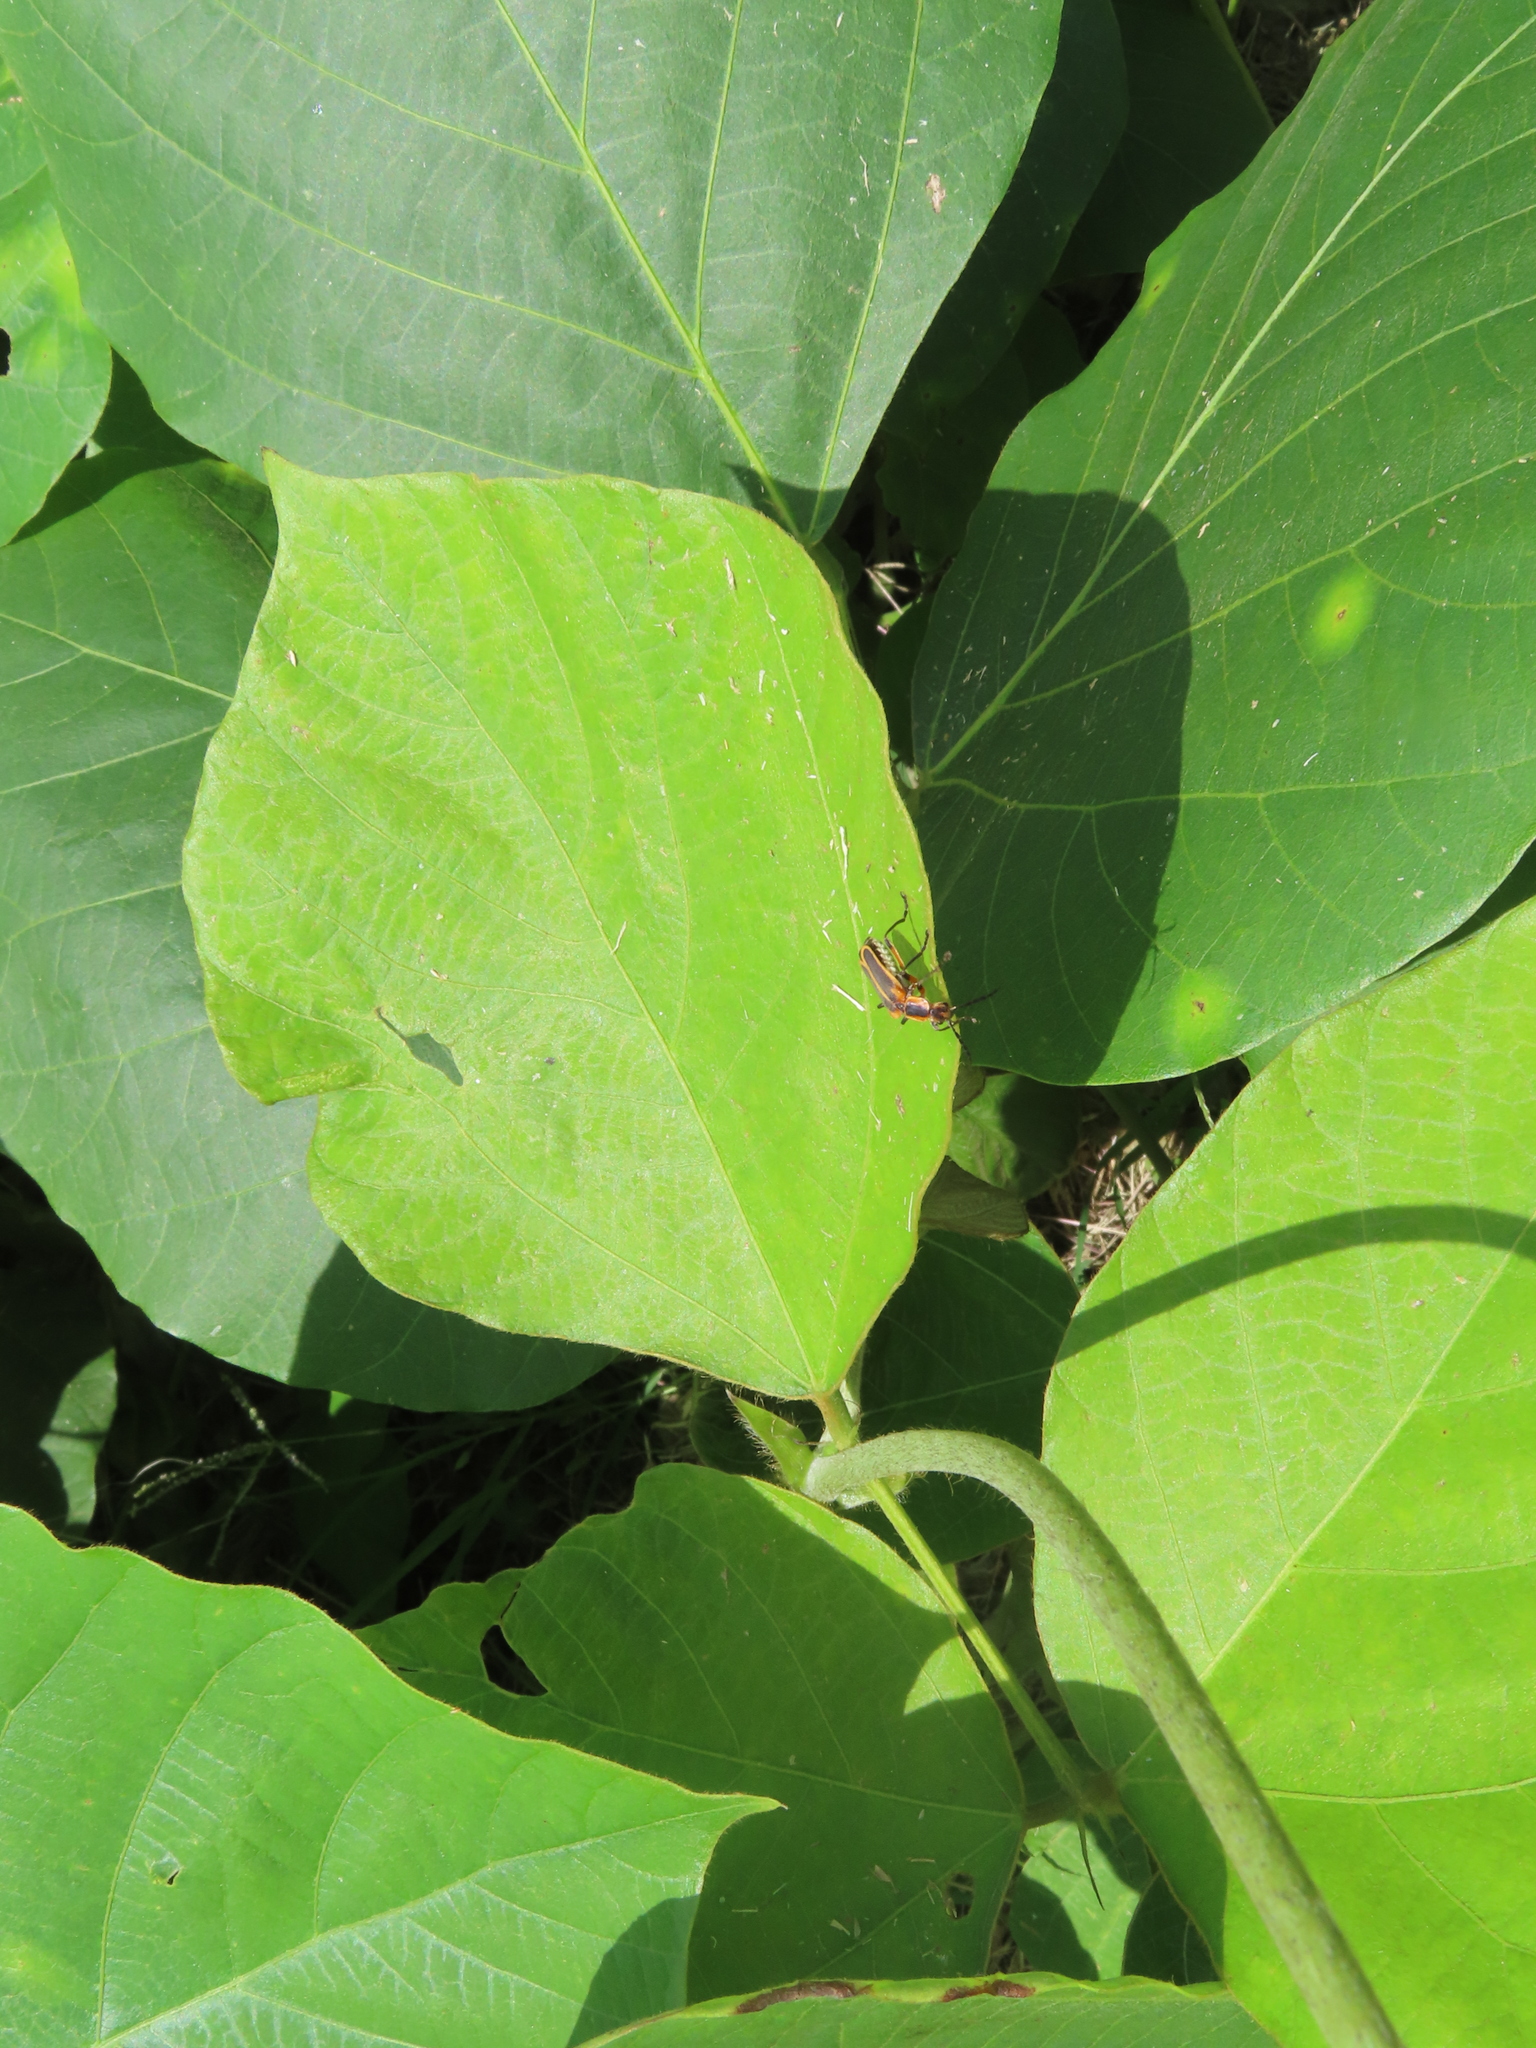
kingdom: Animalia
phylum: Arthropoda
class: Insecta
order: Coleoptera
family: Cantharidae
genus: Chauliognathus
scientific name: Chauliognathus marginatus
